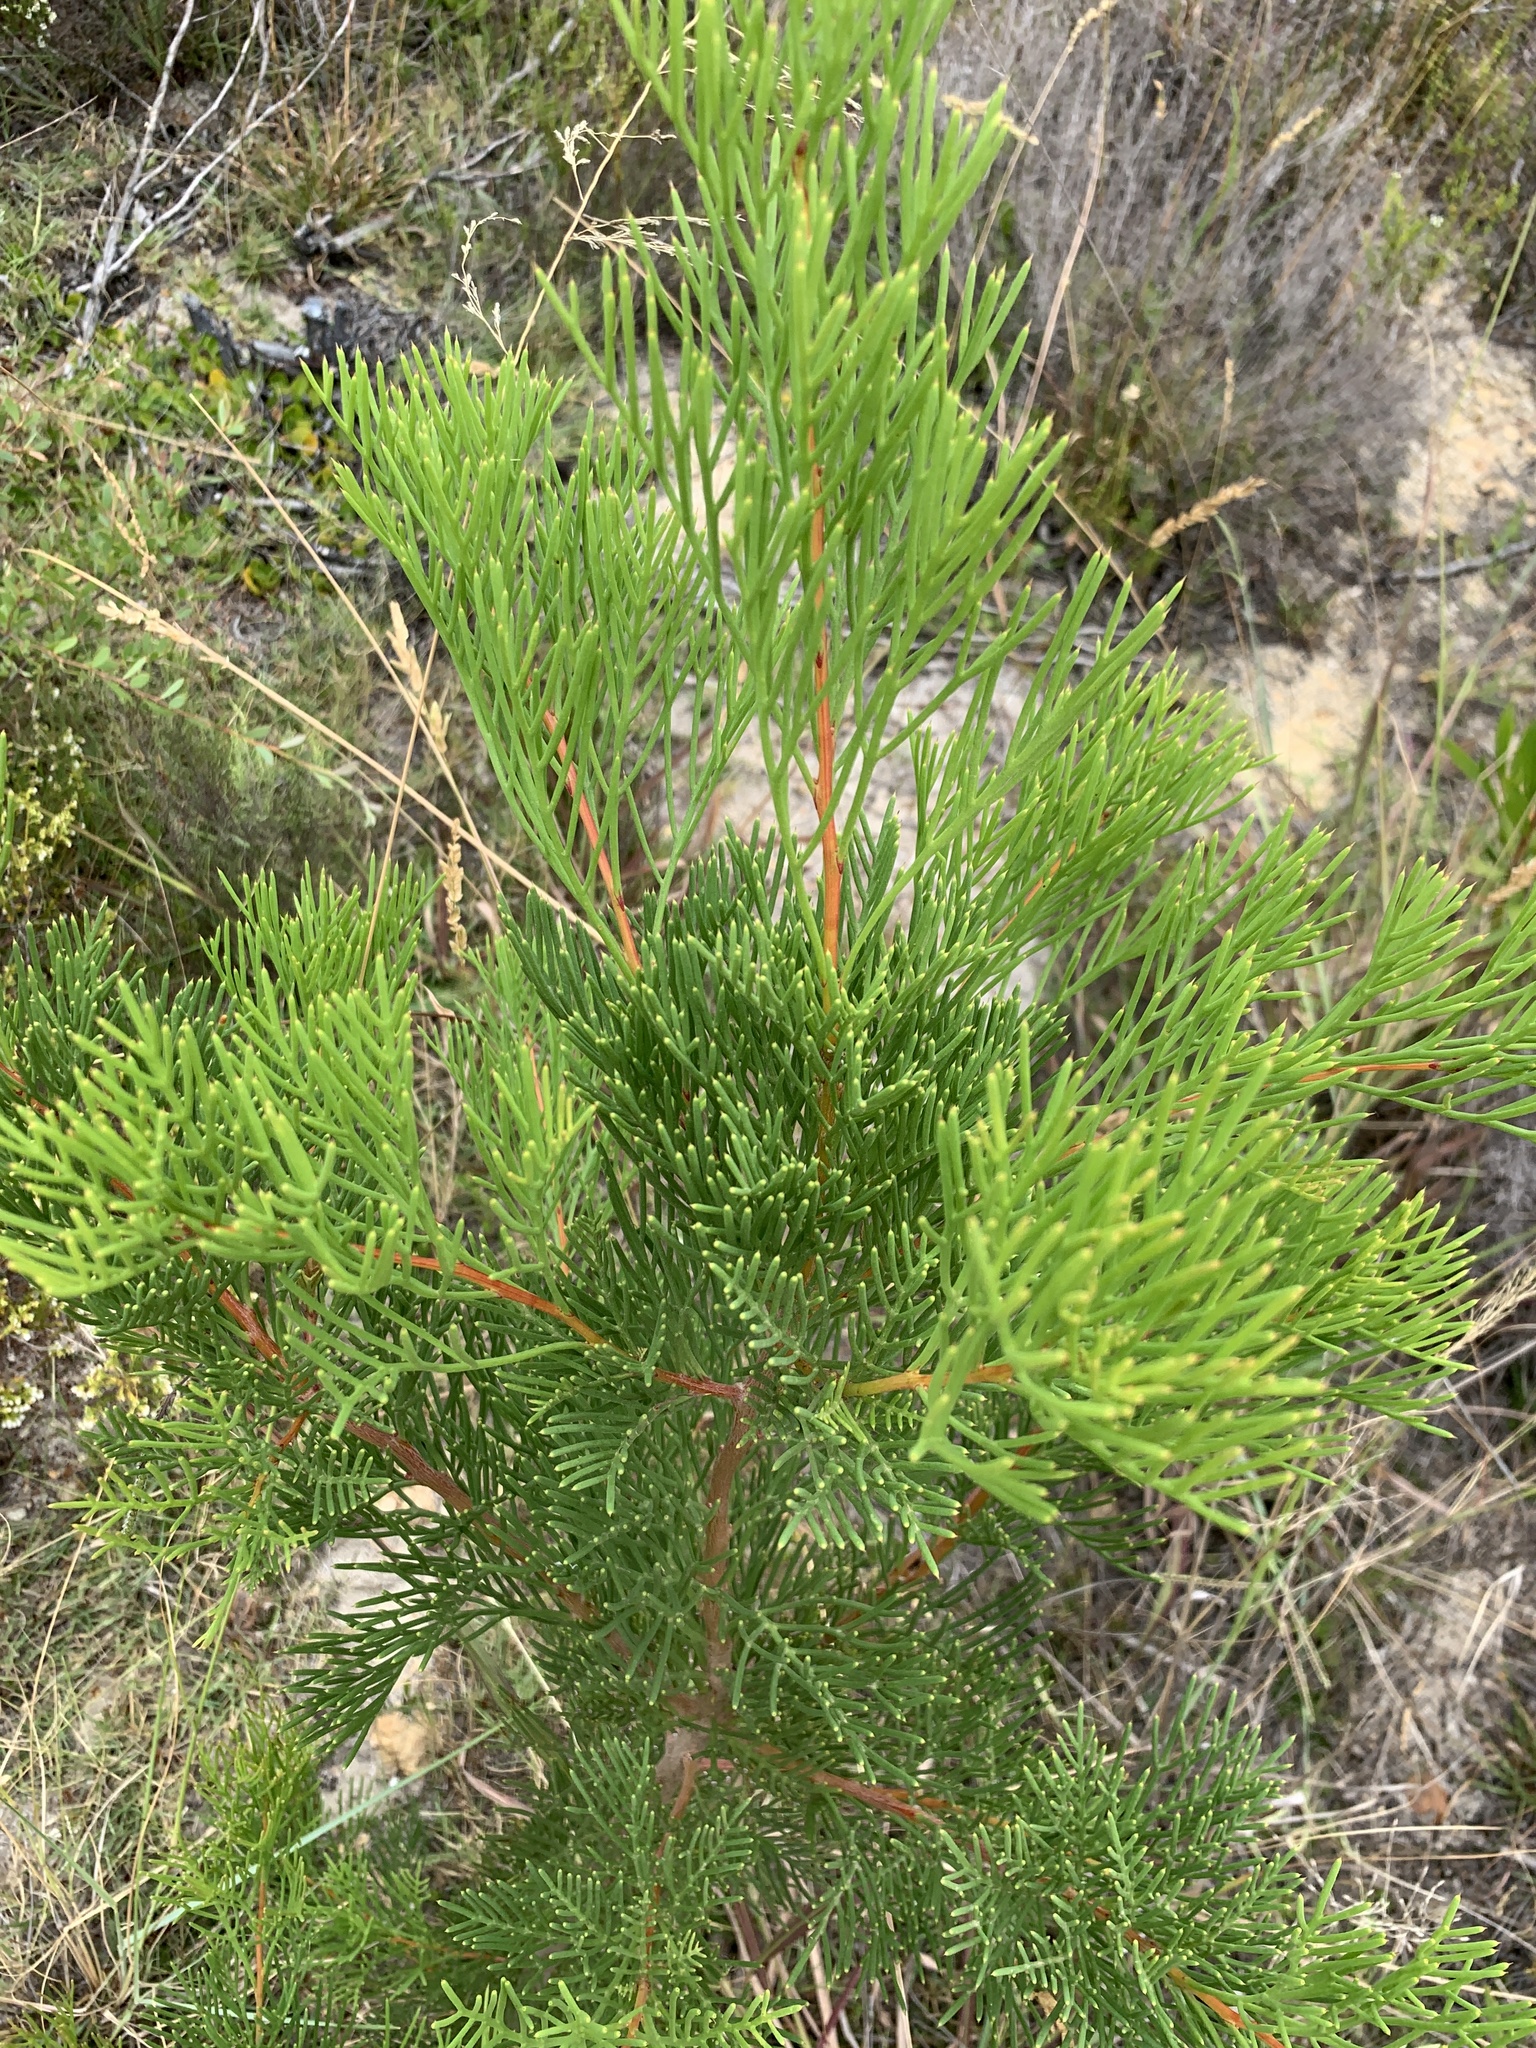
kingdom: Plantae
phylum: Tracheophyta
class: Magnoliopsida
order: Proteales
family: Proteaceae
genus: Hakea
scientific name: Hakea drupacea
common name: Sweet hakea
